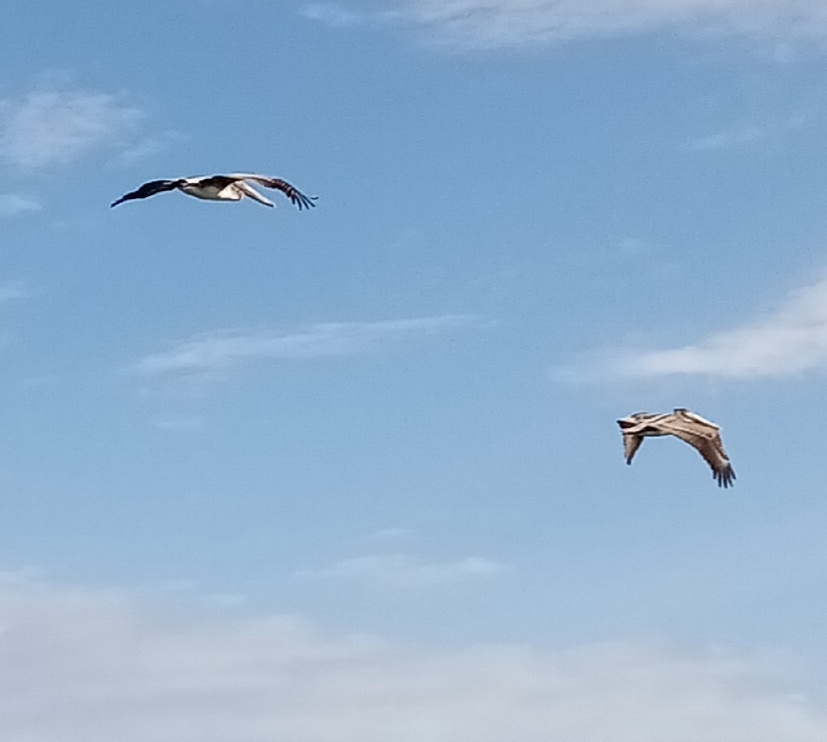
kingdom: Animalia
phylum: Chordata
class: Aves
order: Pelecaniformes
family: Pelecanidae
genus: Pelecanus
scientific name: Pelecanus occidentalis
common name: Brown pelican
